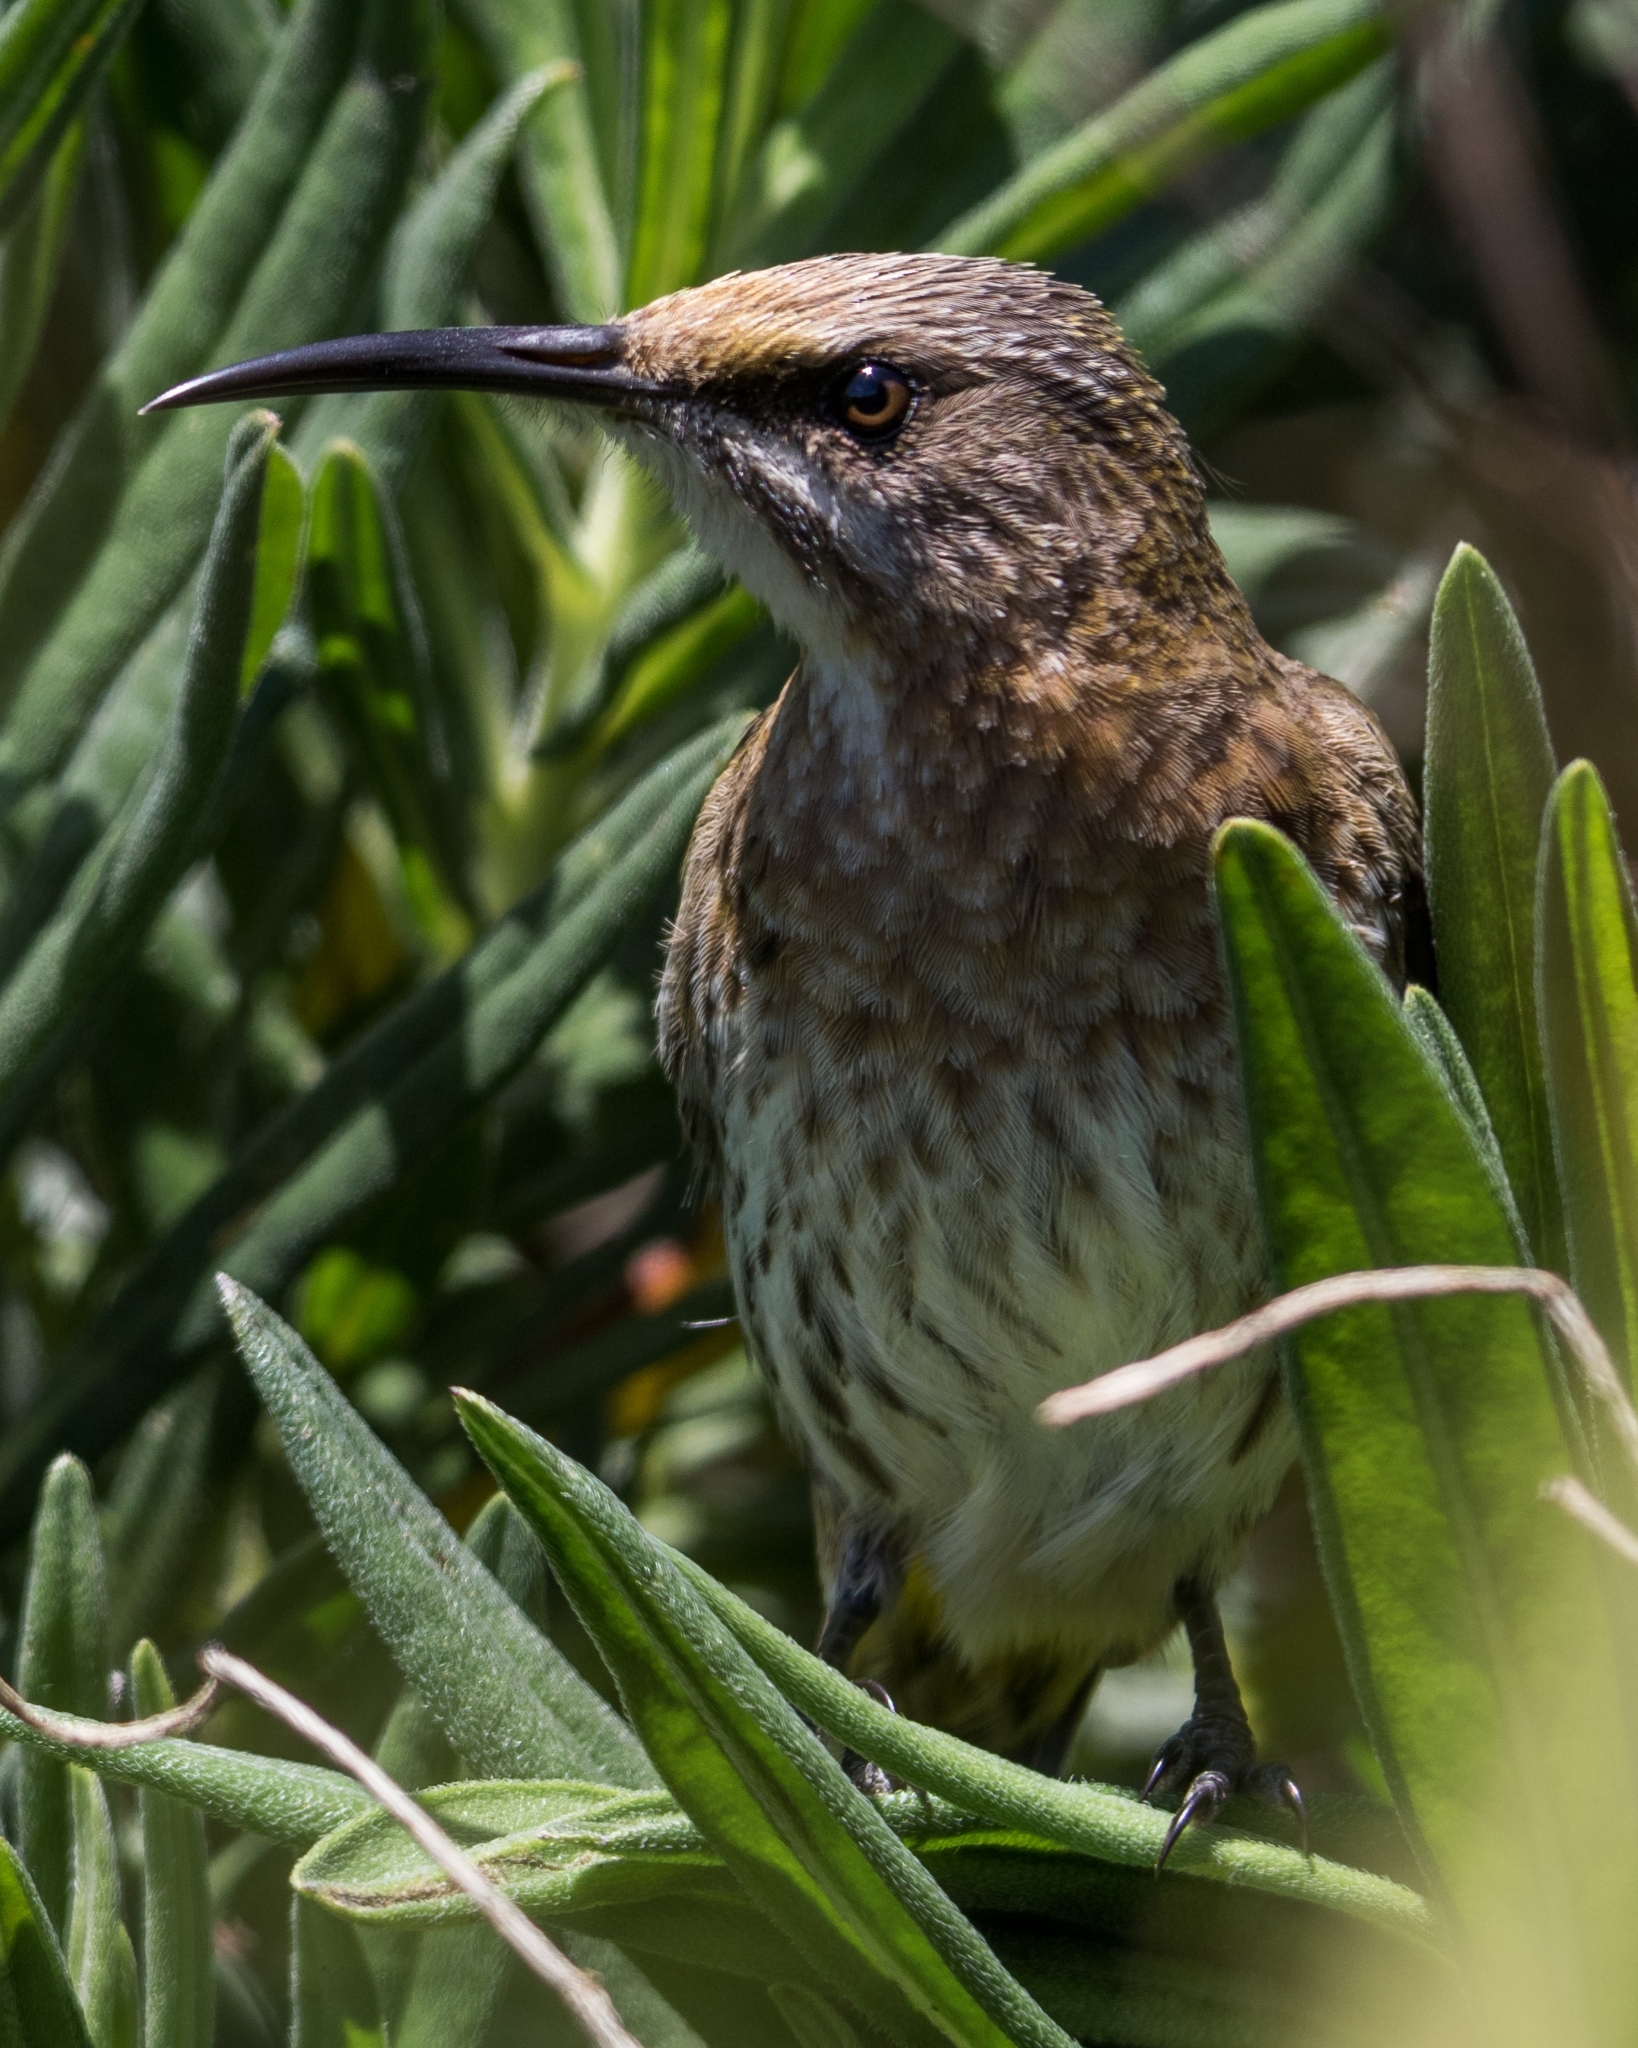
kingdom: Animalia
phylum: Chordata
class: Aves
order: Passeriformes
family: Promeropidae
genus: Promerops
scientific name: Promerops cafer
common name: Cape sugarbird
